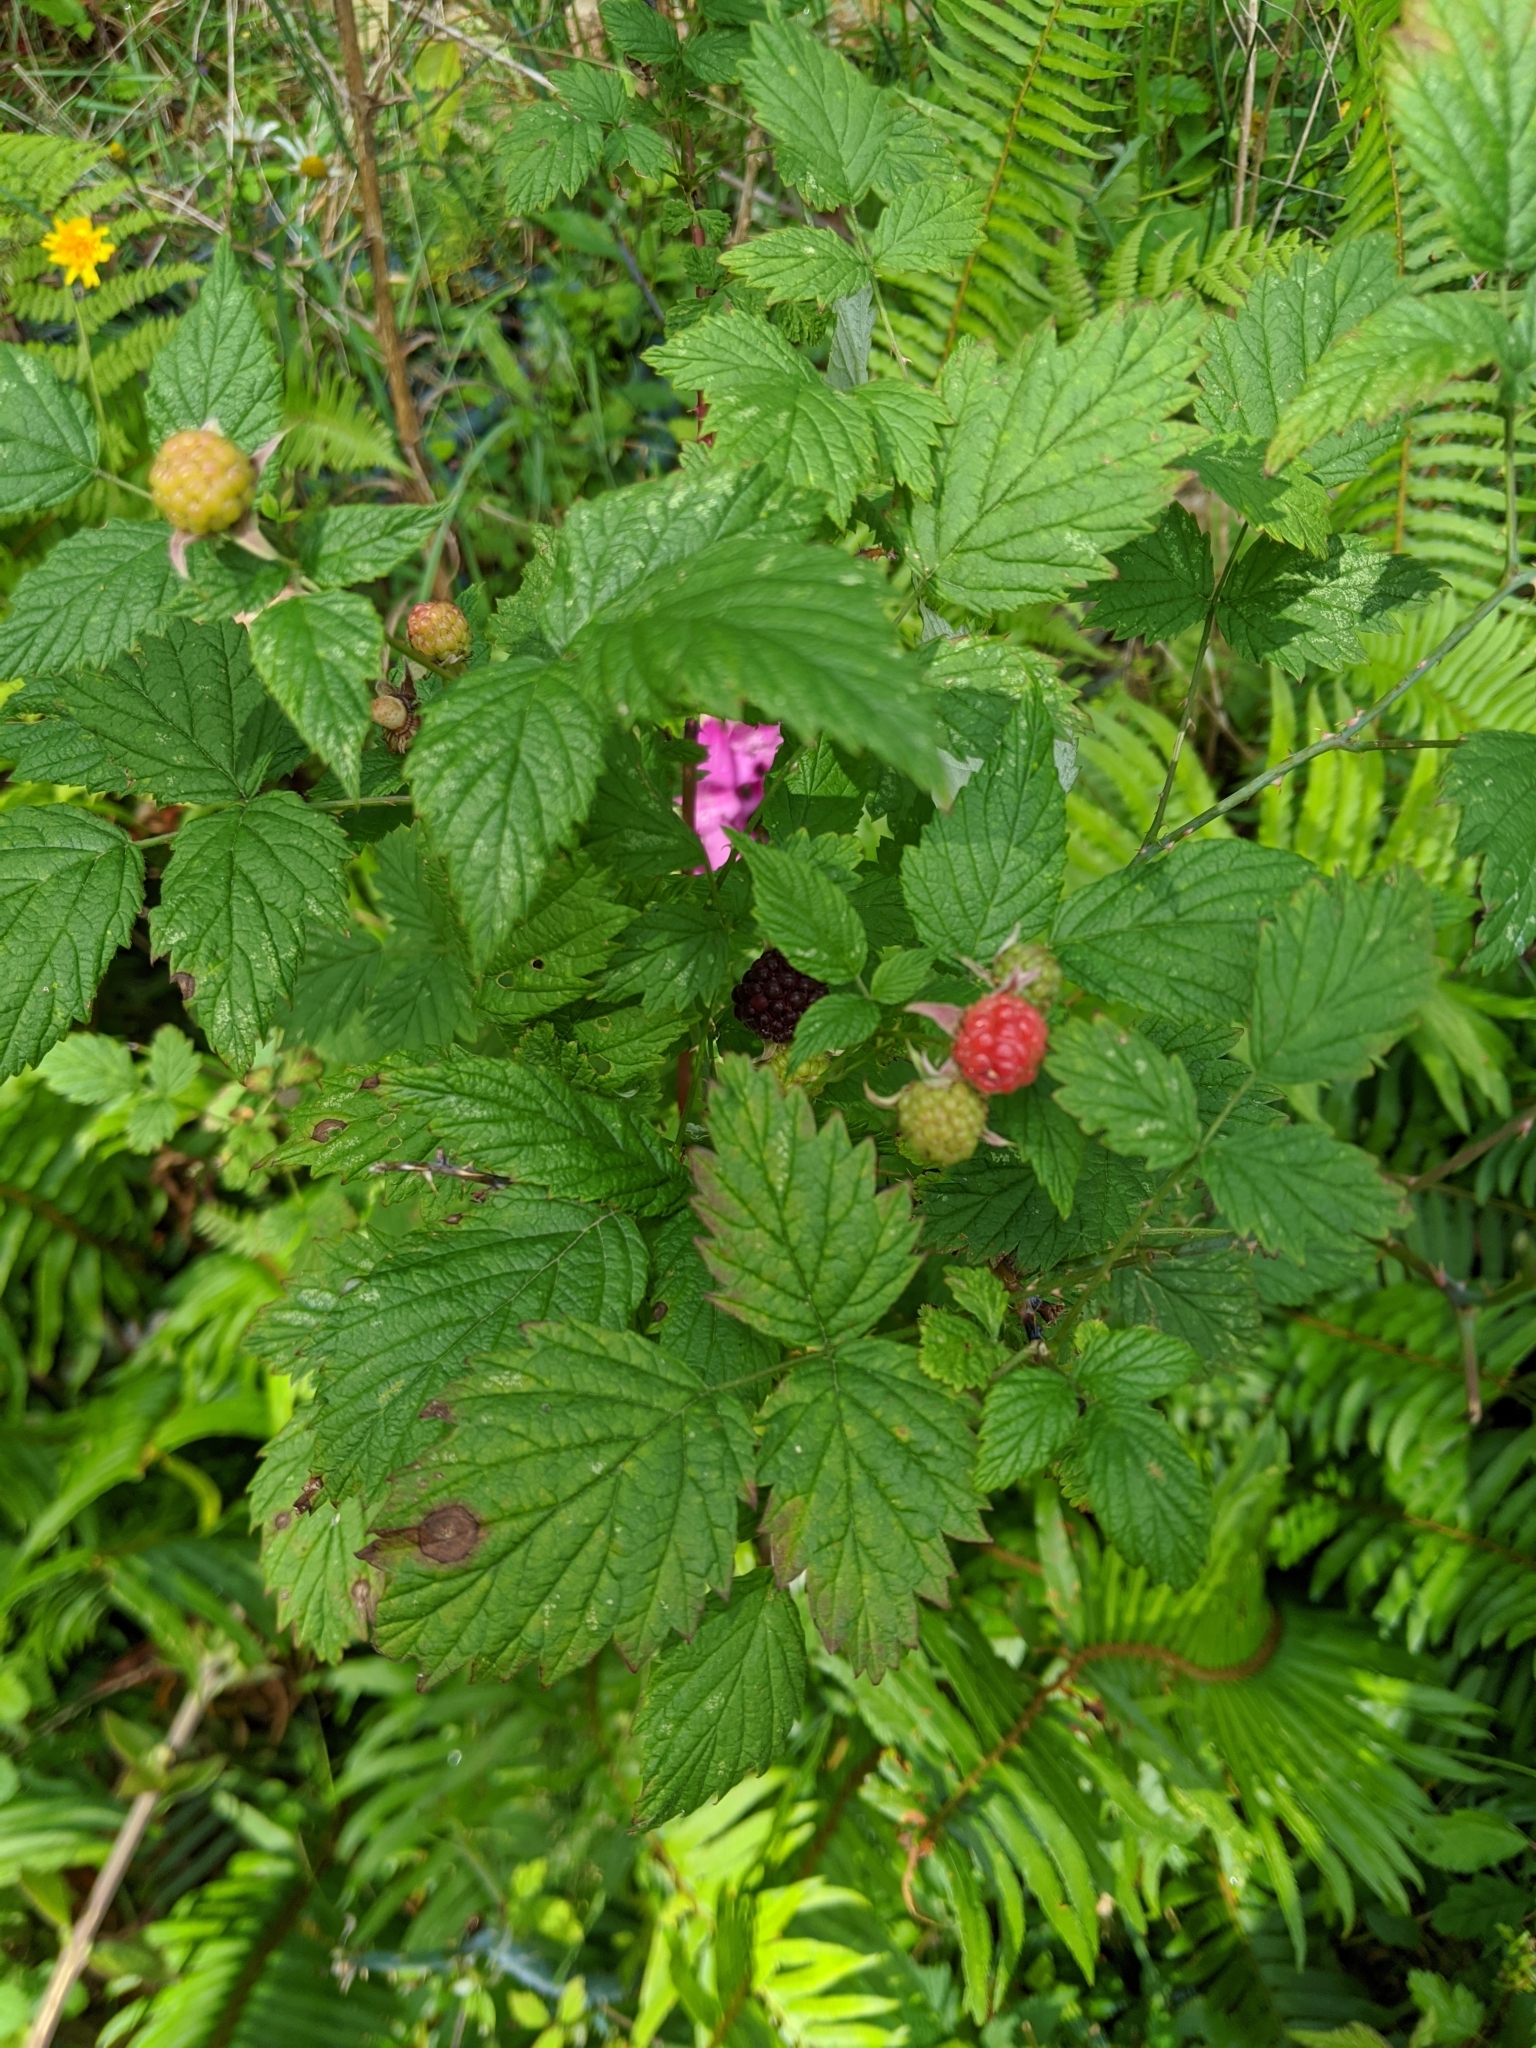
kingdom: Plantae
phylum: Tracheophyta
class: Magnoliopsida
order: Rosales
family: Rosaceae
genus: Rubus
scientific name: Rubus idaeus
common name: Raspberry
